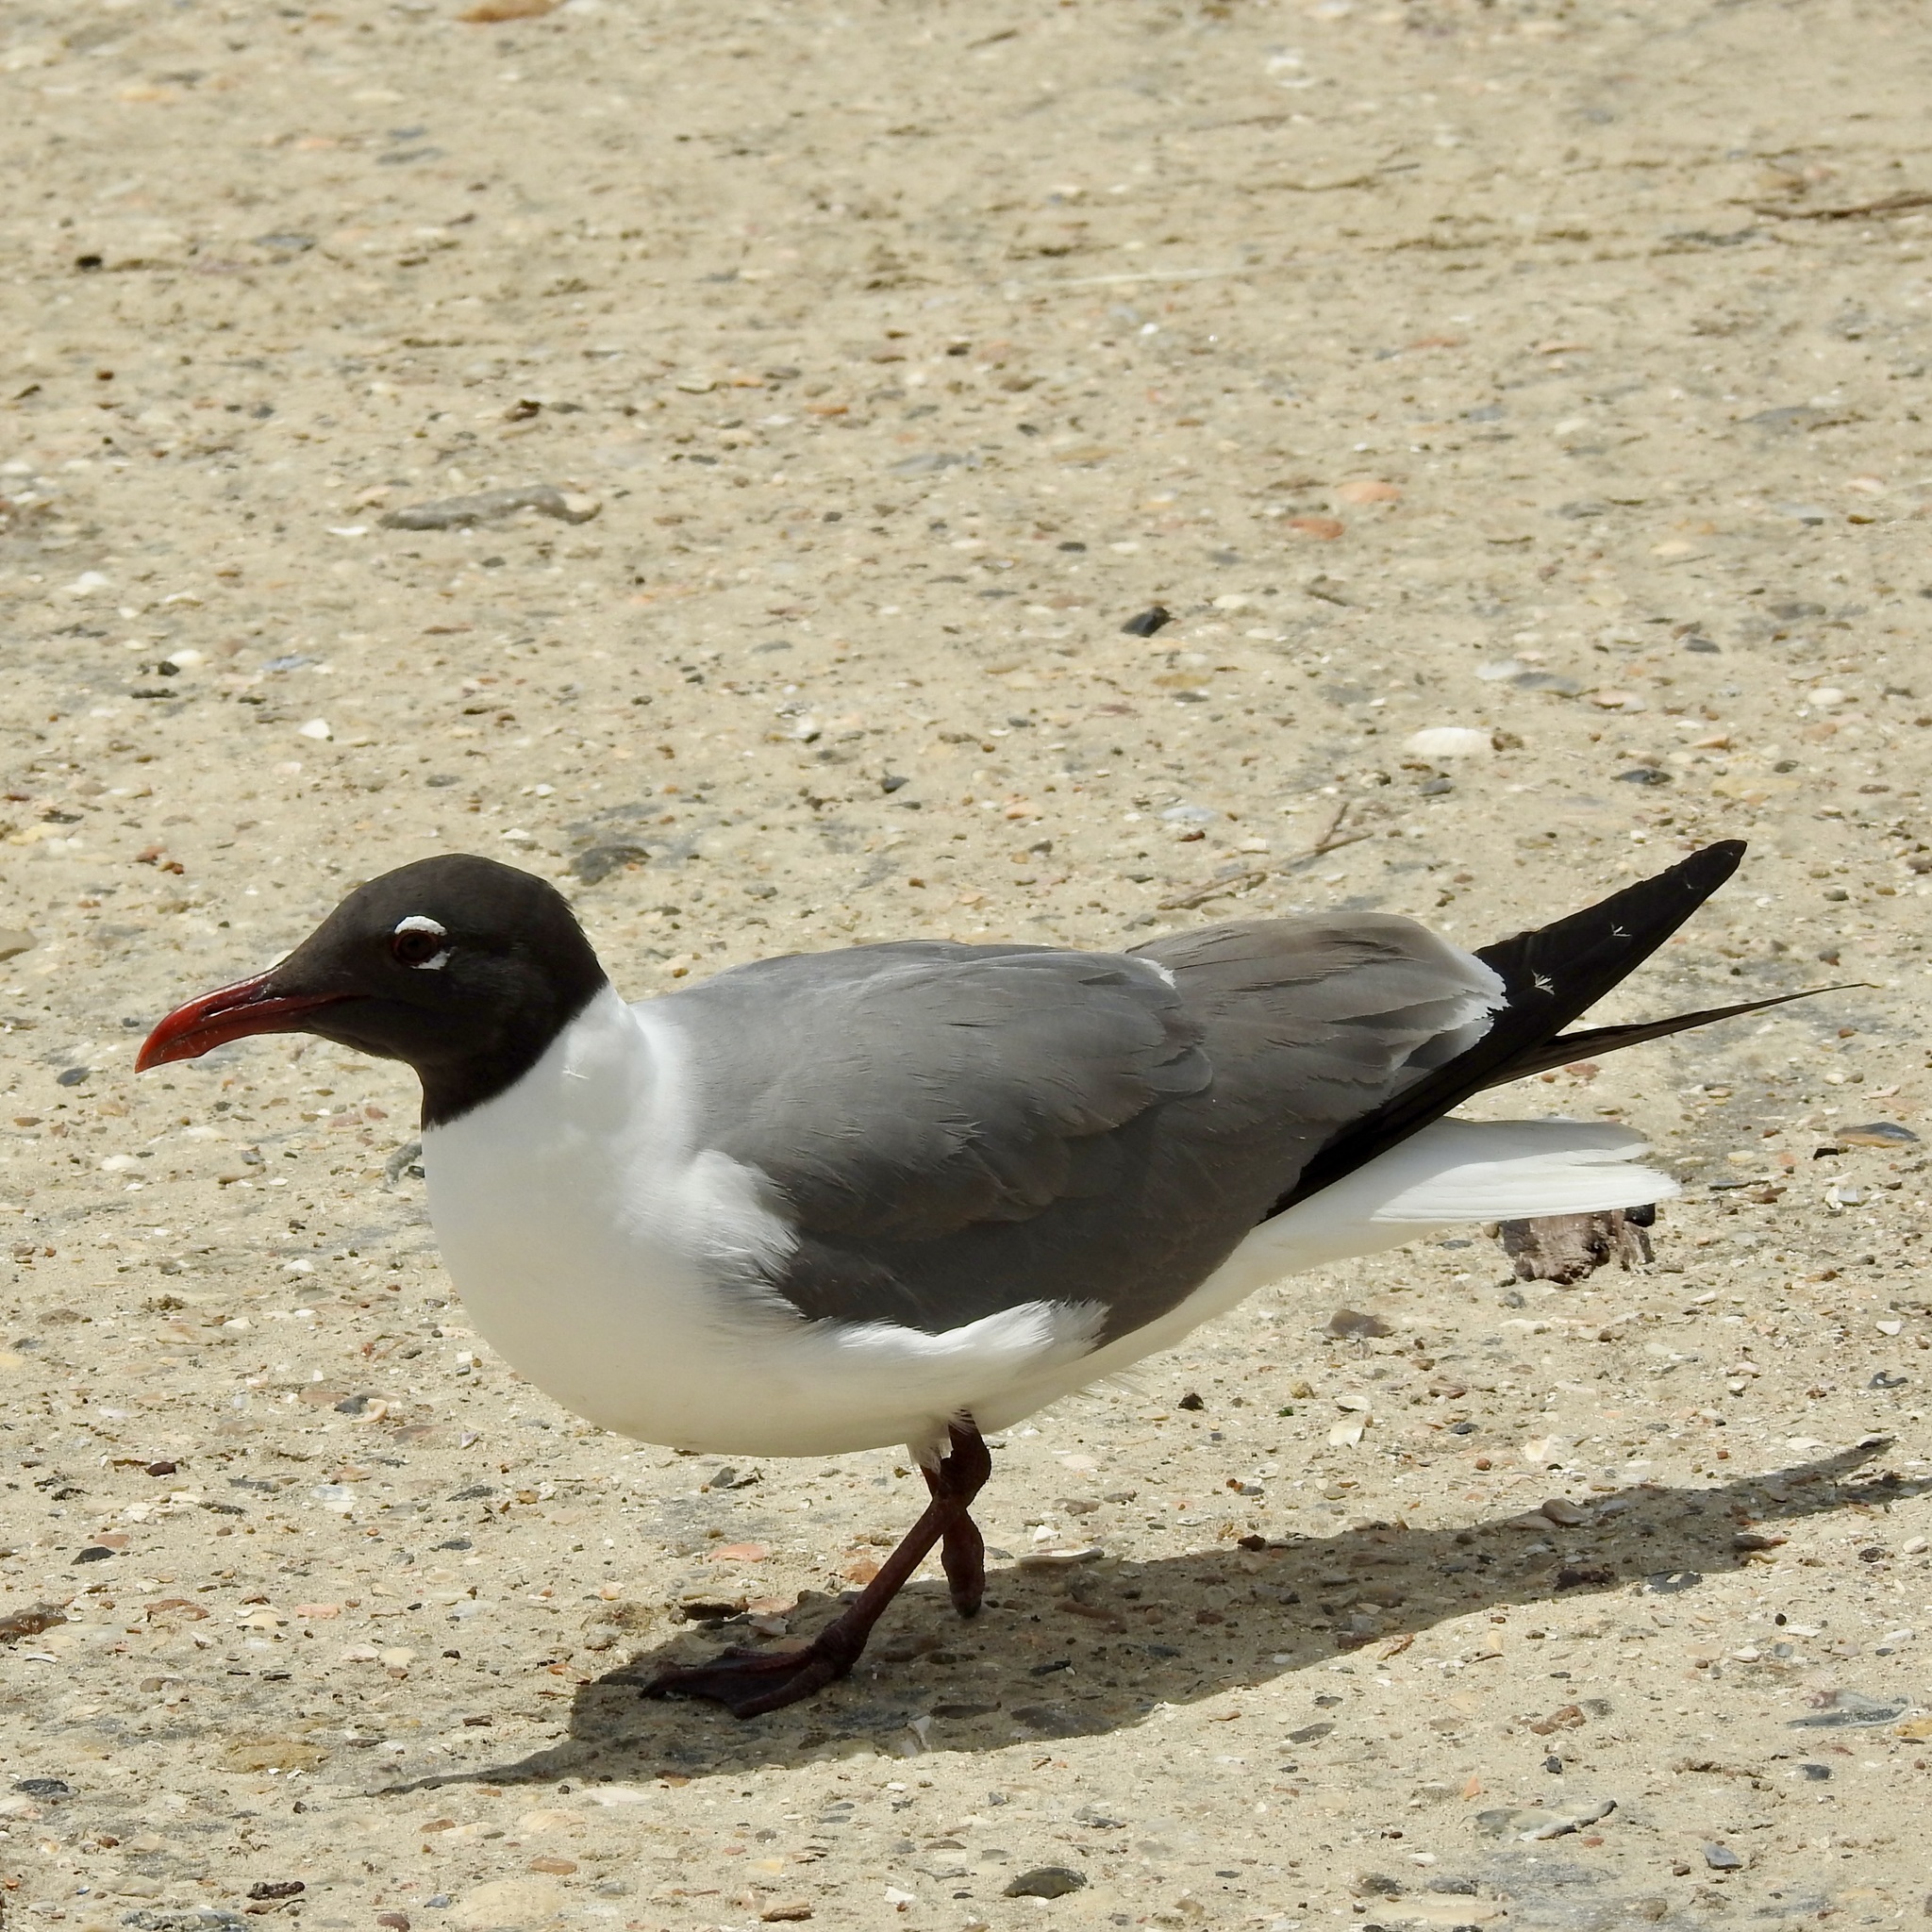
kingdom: Animalia
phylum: Chordata
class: Aves
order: Charadriiformes
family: Laridae
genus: Leucophaeus
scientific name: Leucophaeus atricilla
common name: Laughing gull
